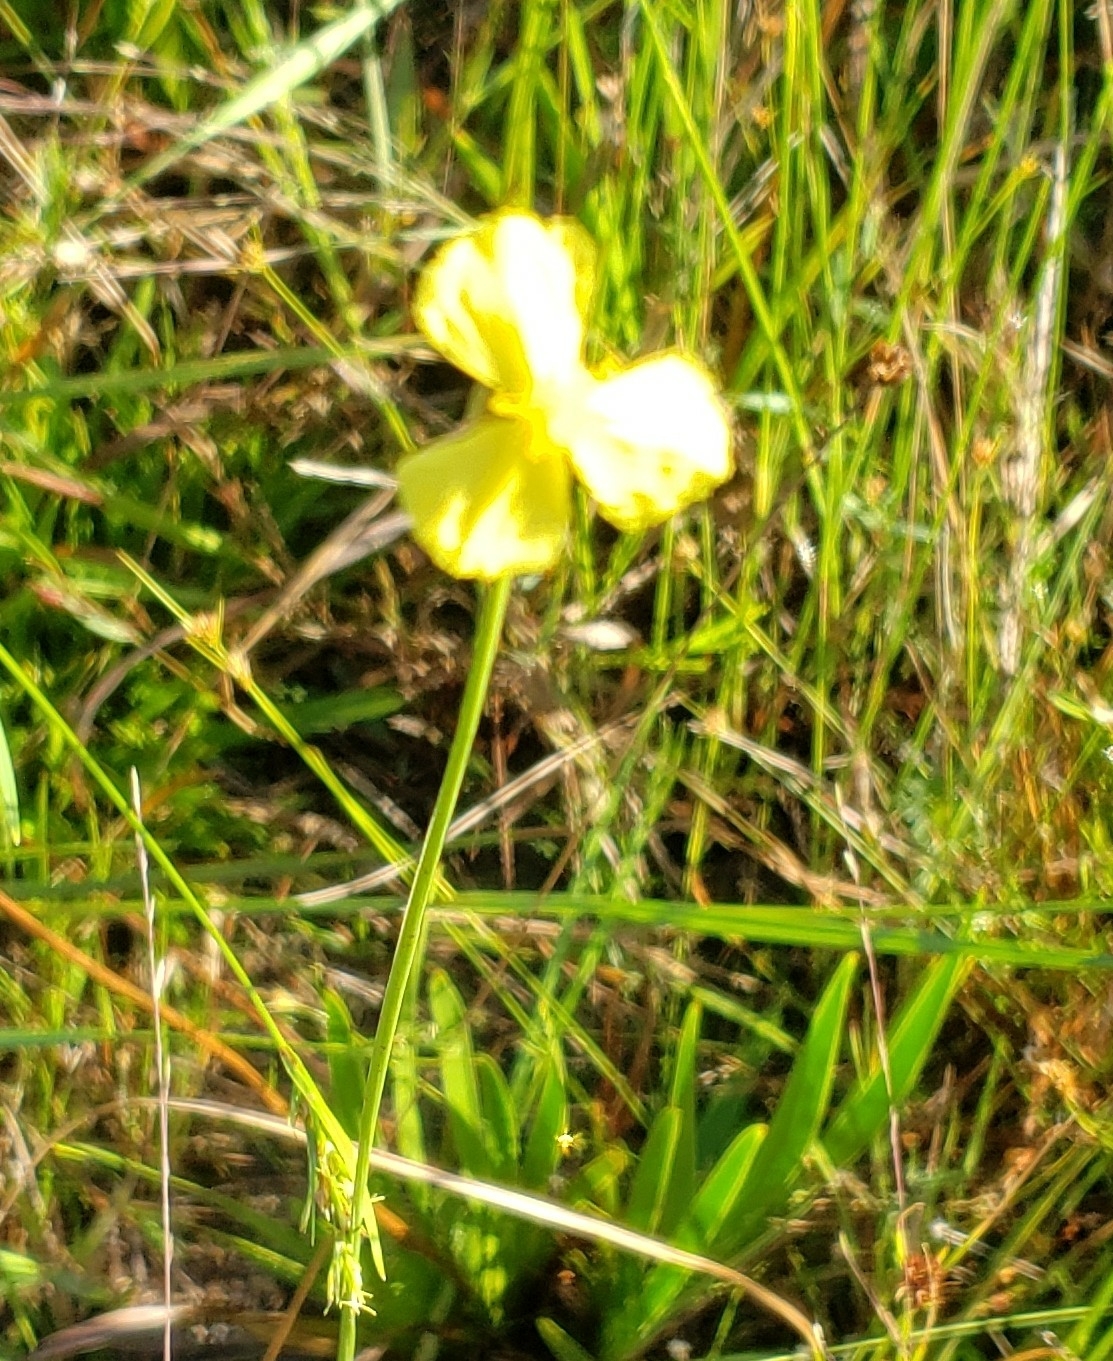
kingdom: Plantae
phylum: Tracheophyta
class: Liliopsida
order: Poales
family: Xyridaceae
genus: Xyris
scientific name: Xyris ambigua
